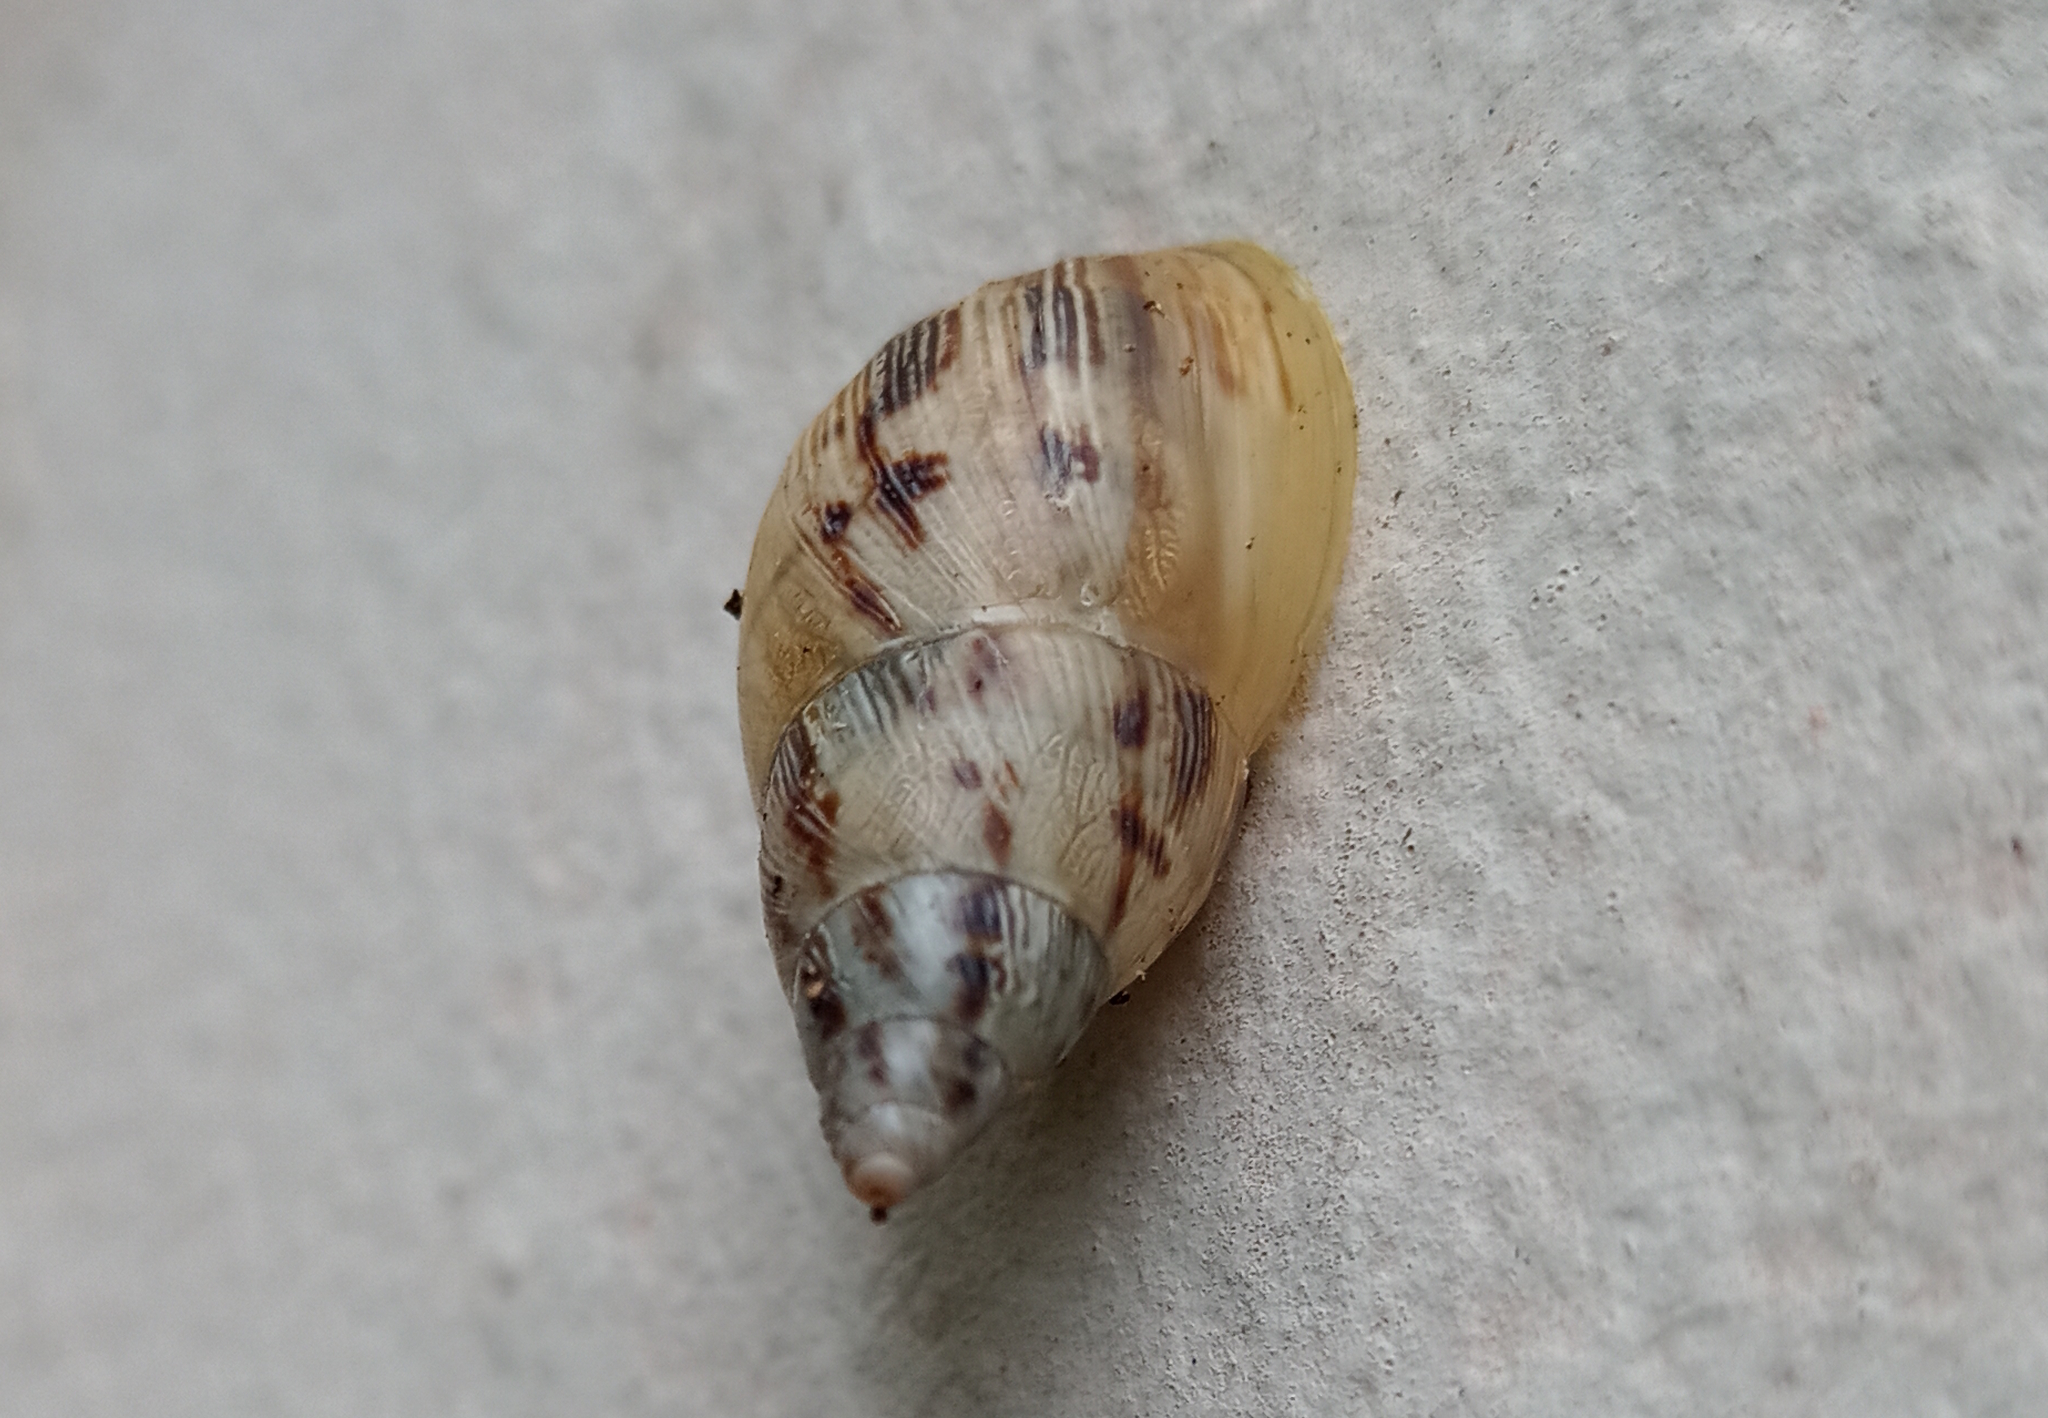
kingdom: Animalia
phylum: Mollusca
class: Gastropoda
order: Stylommatophora
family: Bulimulidae
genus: Drymaeus
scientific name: Drymaeus papyraceus
